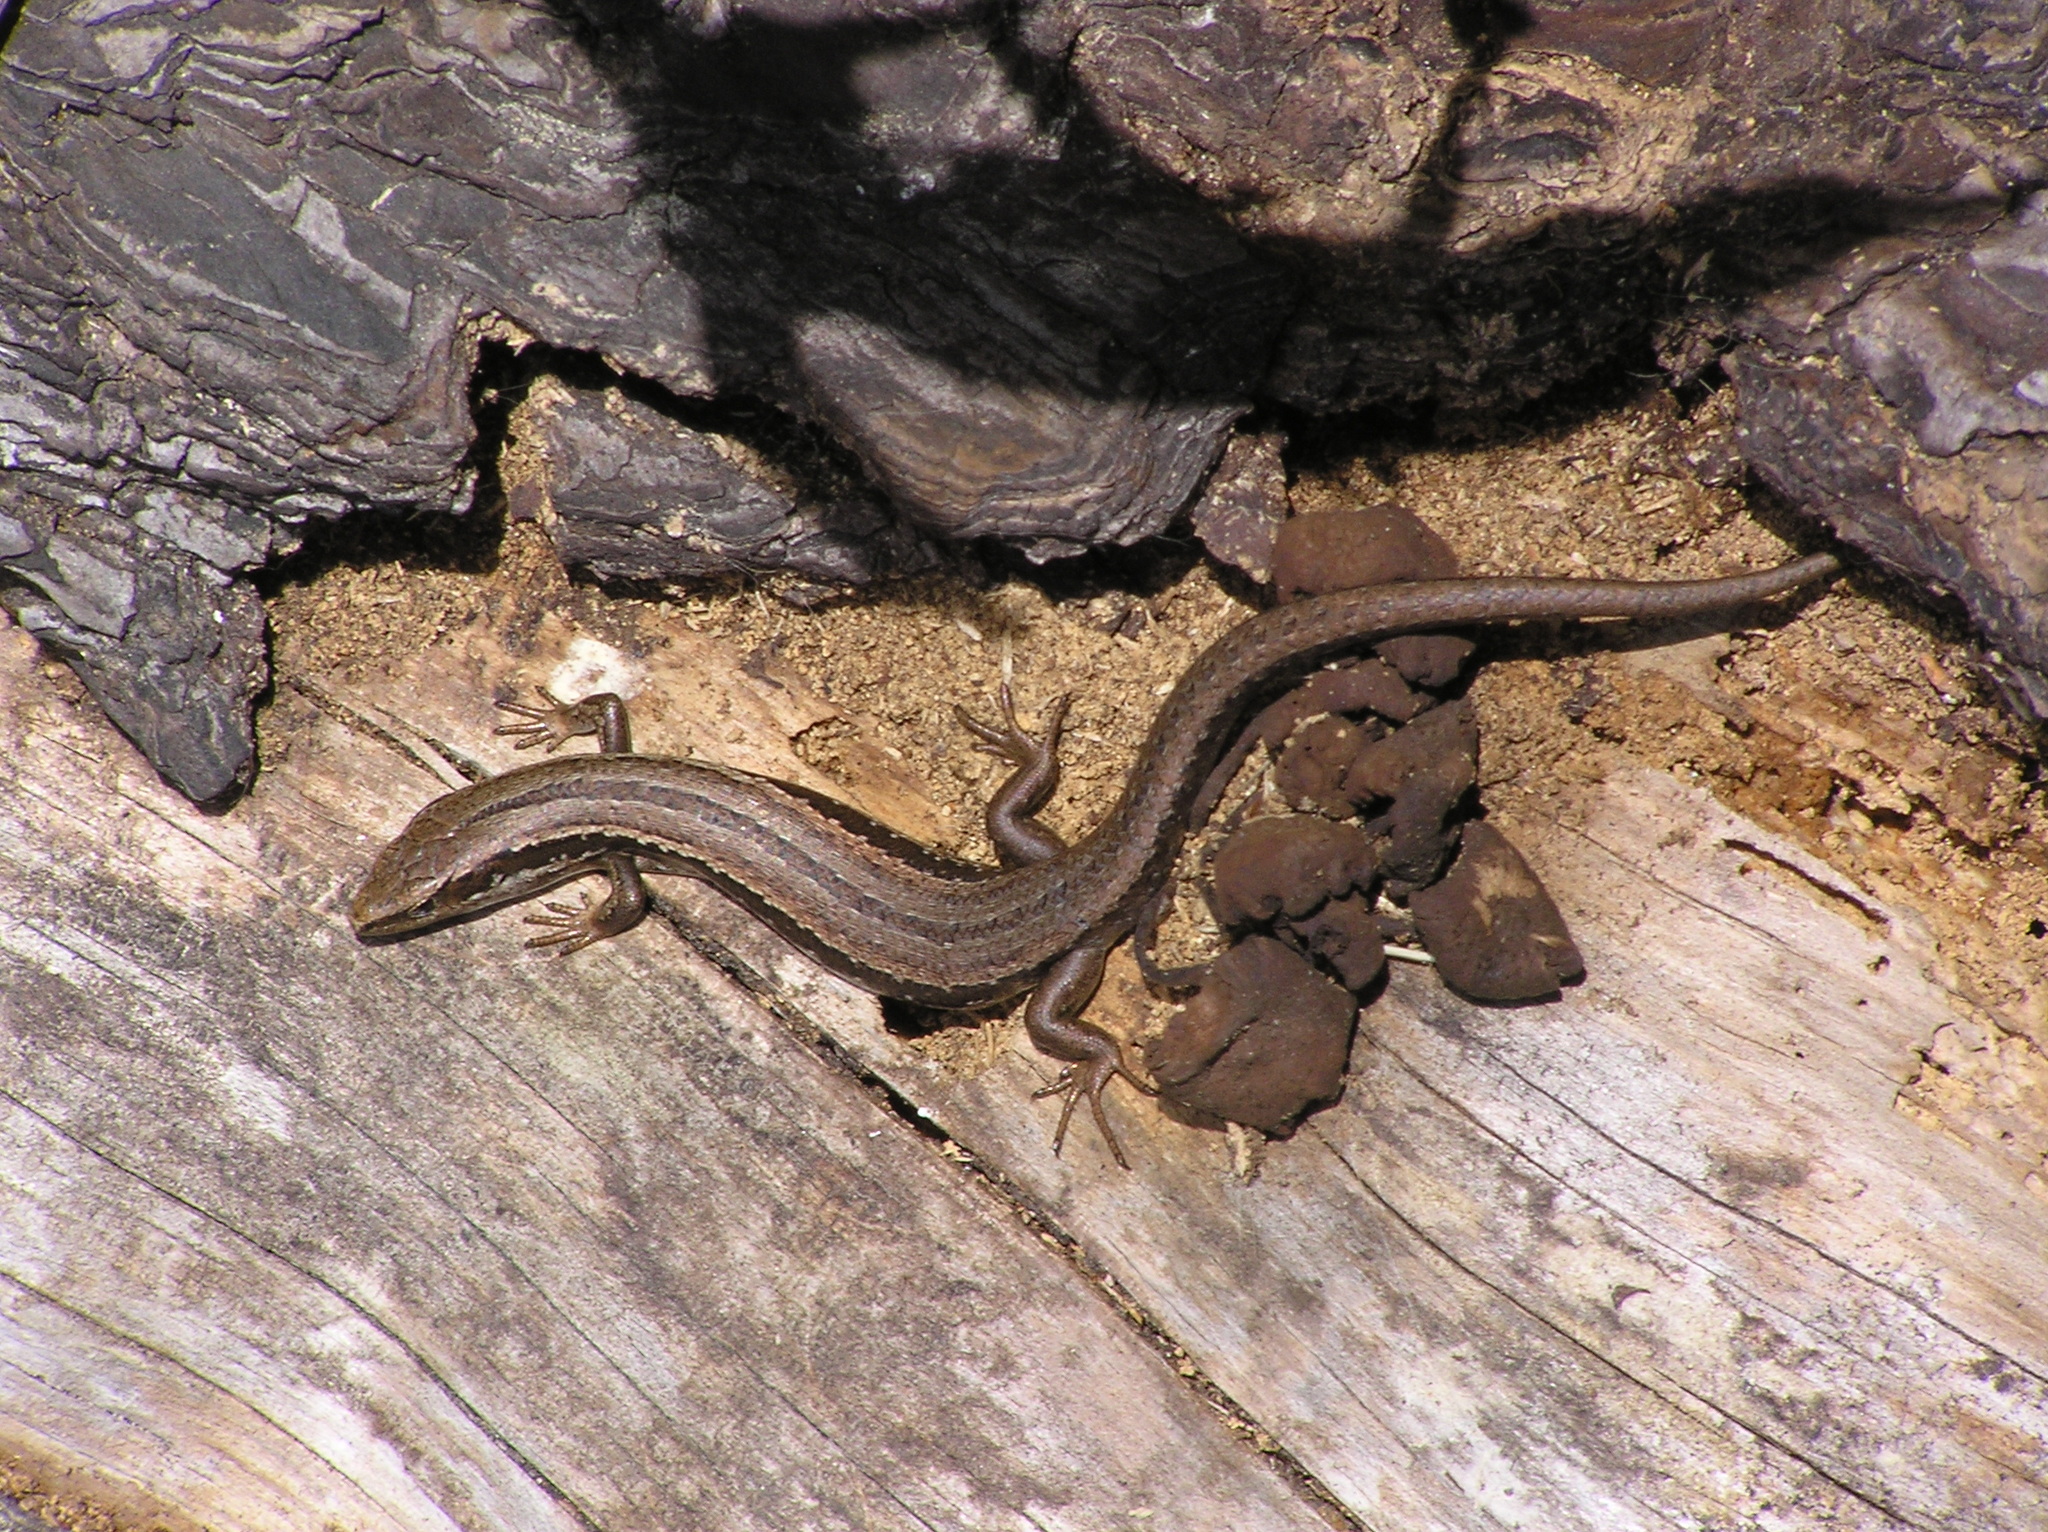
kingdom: Animalia
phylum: Chordata
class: Squamata
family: Scincidae
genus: Oligosoma
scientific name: Oligosoma polychroma
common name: Common new zealand skink
